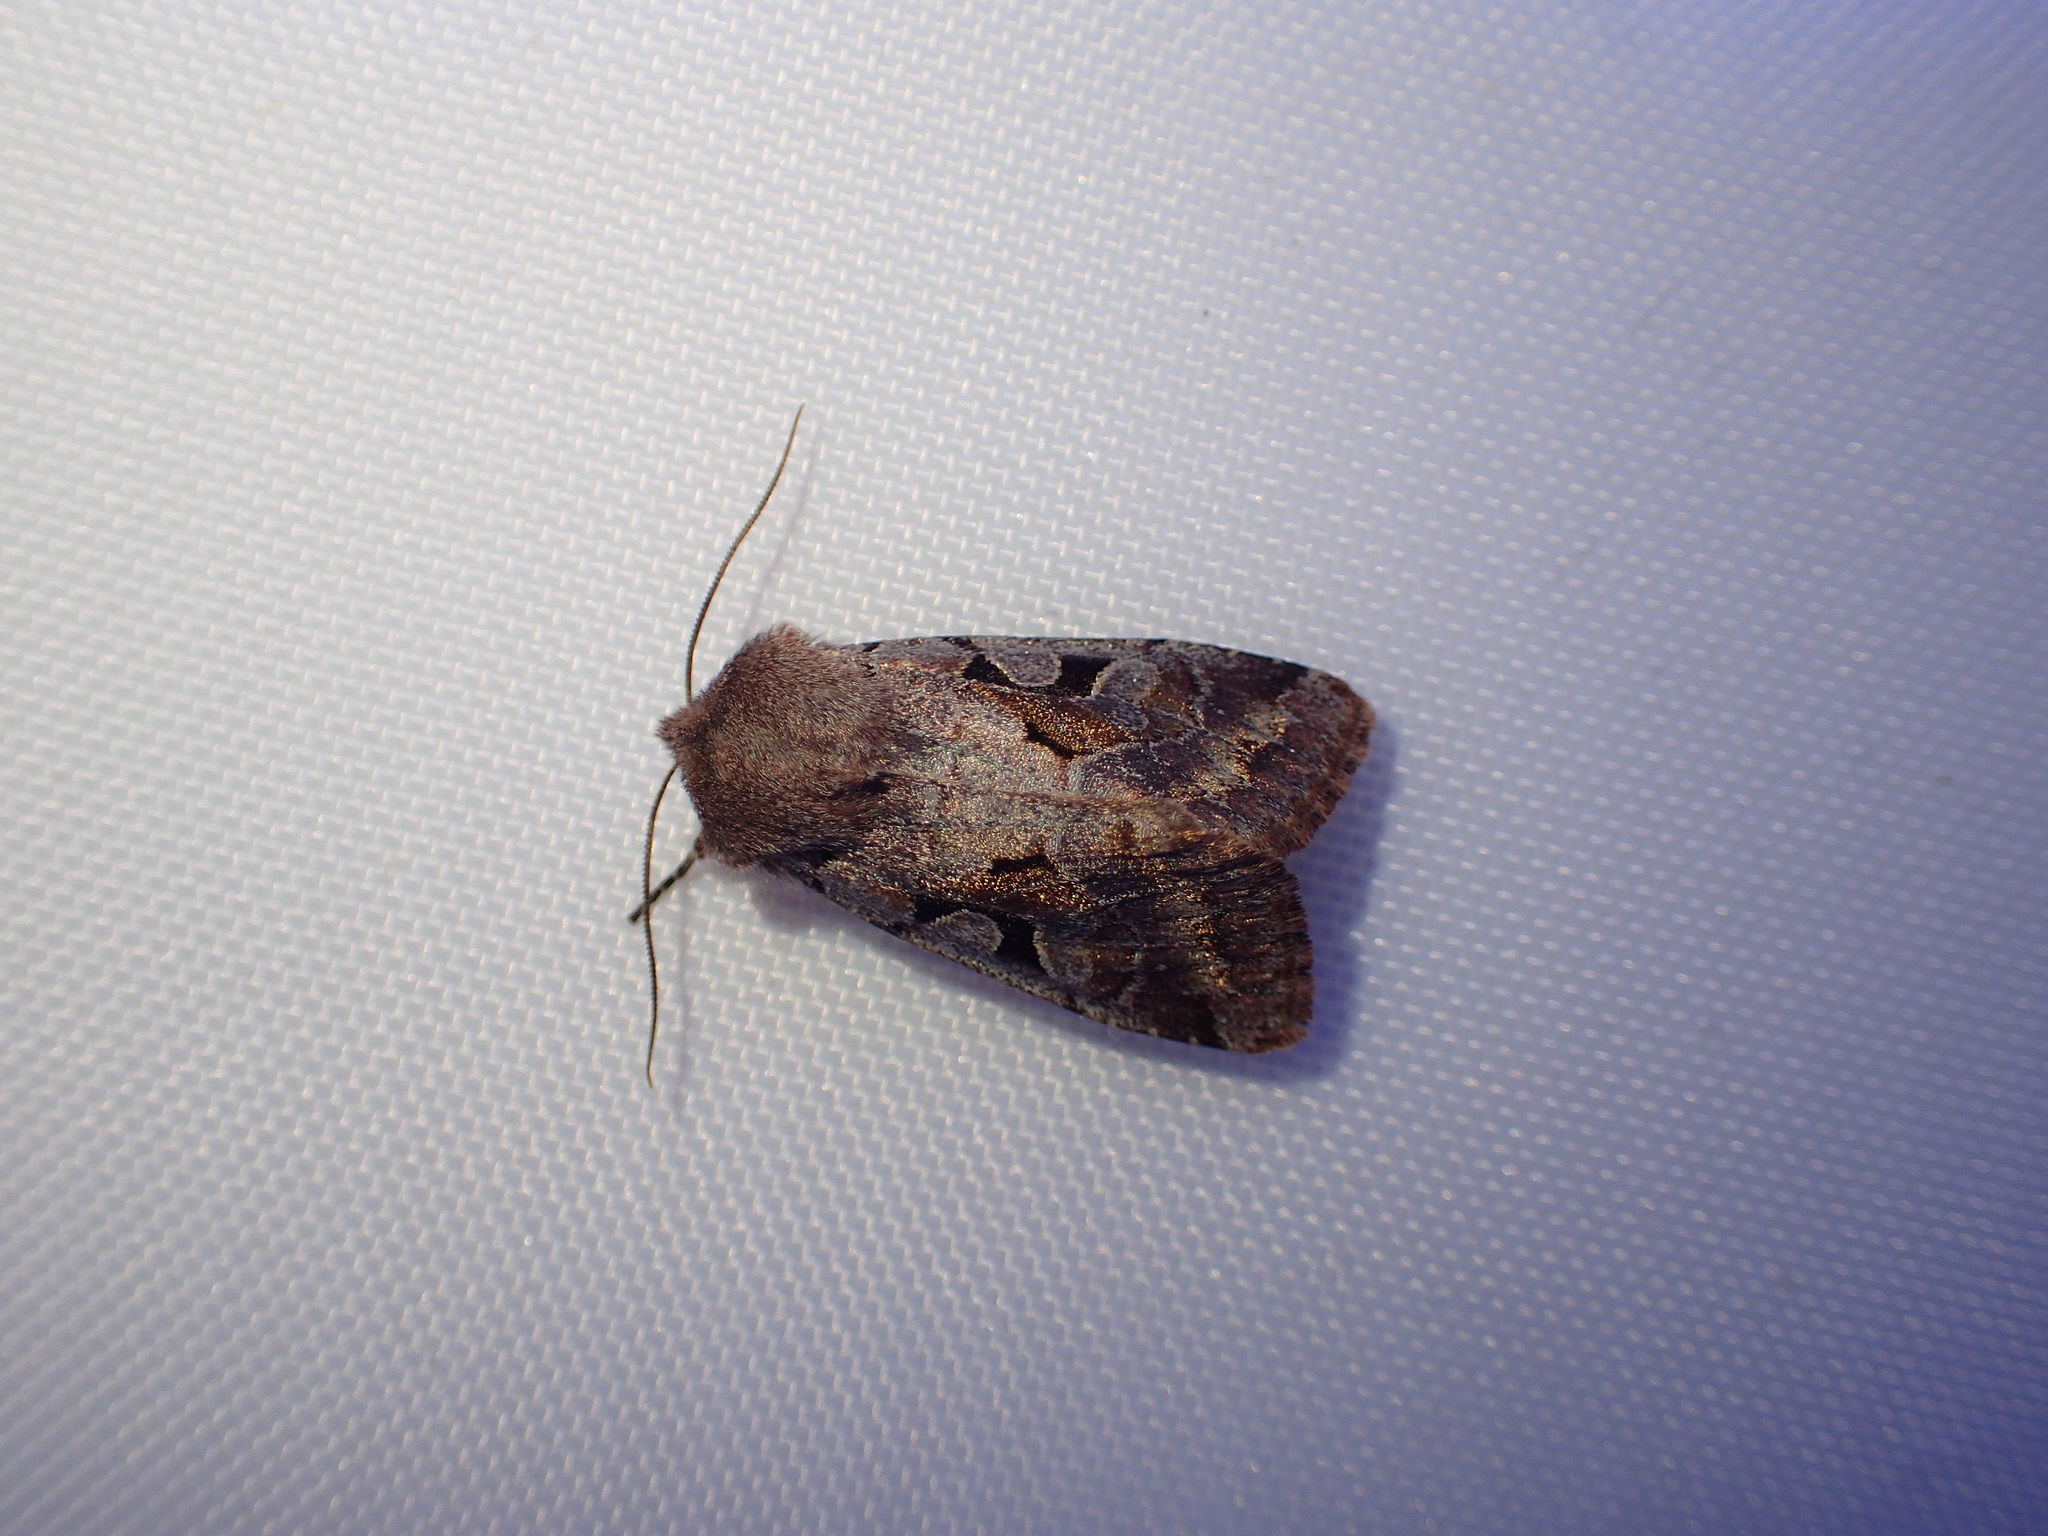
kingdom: Animalia
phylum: Arthropoda
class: Insecta
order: Lepidoptera
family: Noctuidae
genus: Orthosia
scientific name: Orthosia gothica
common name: Hebrew character
